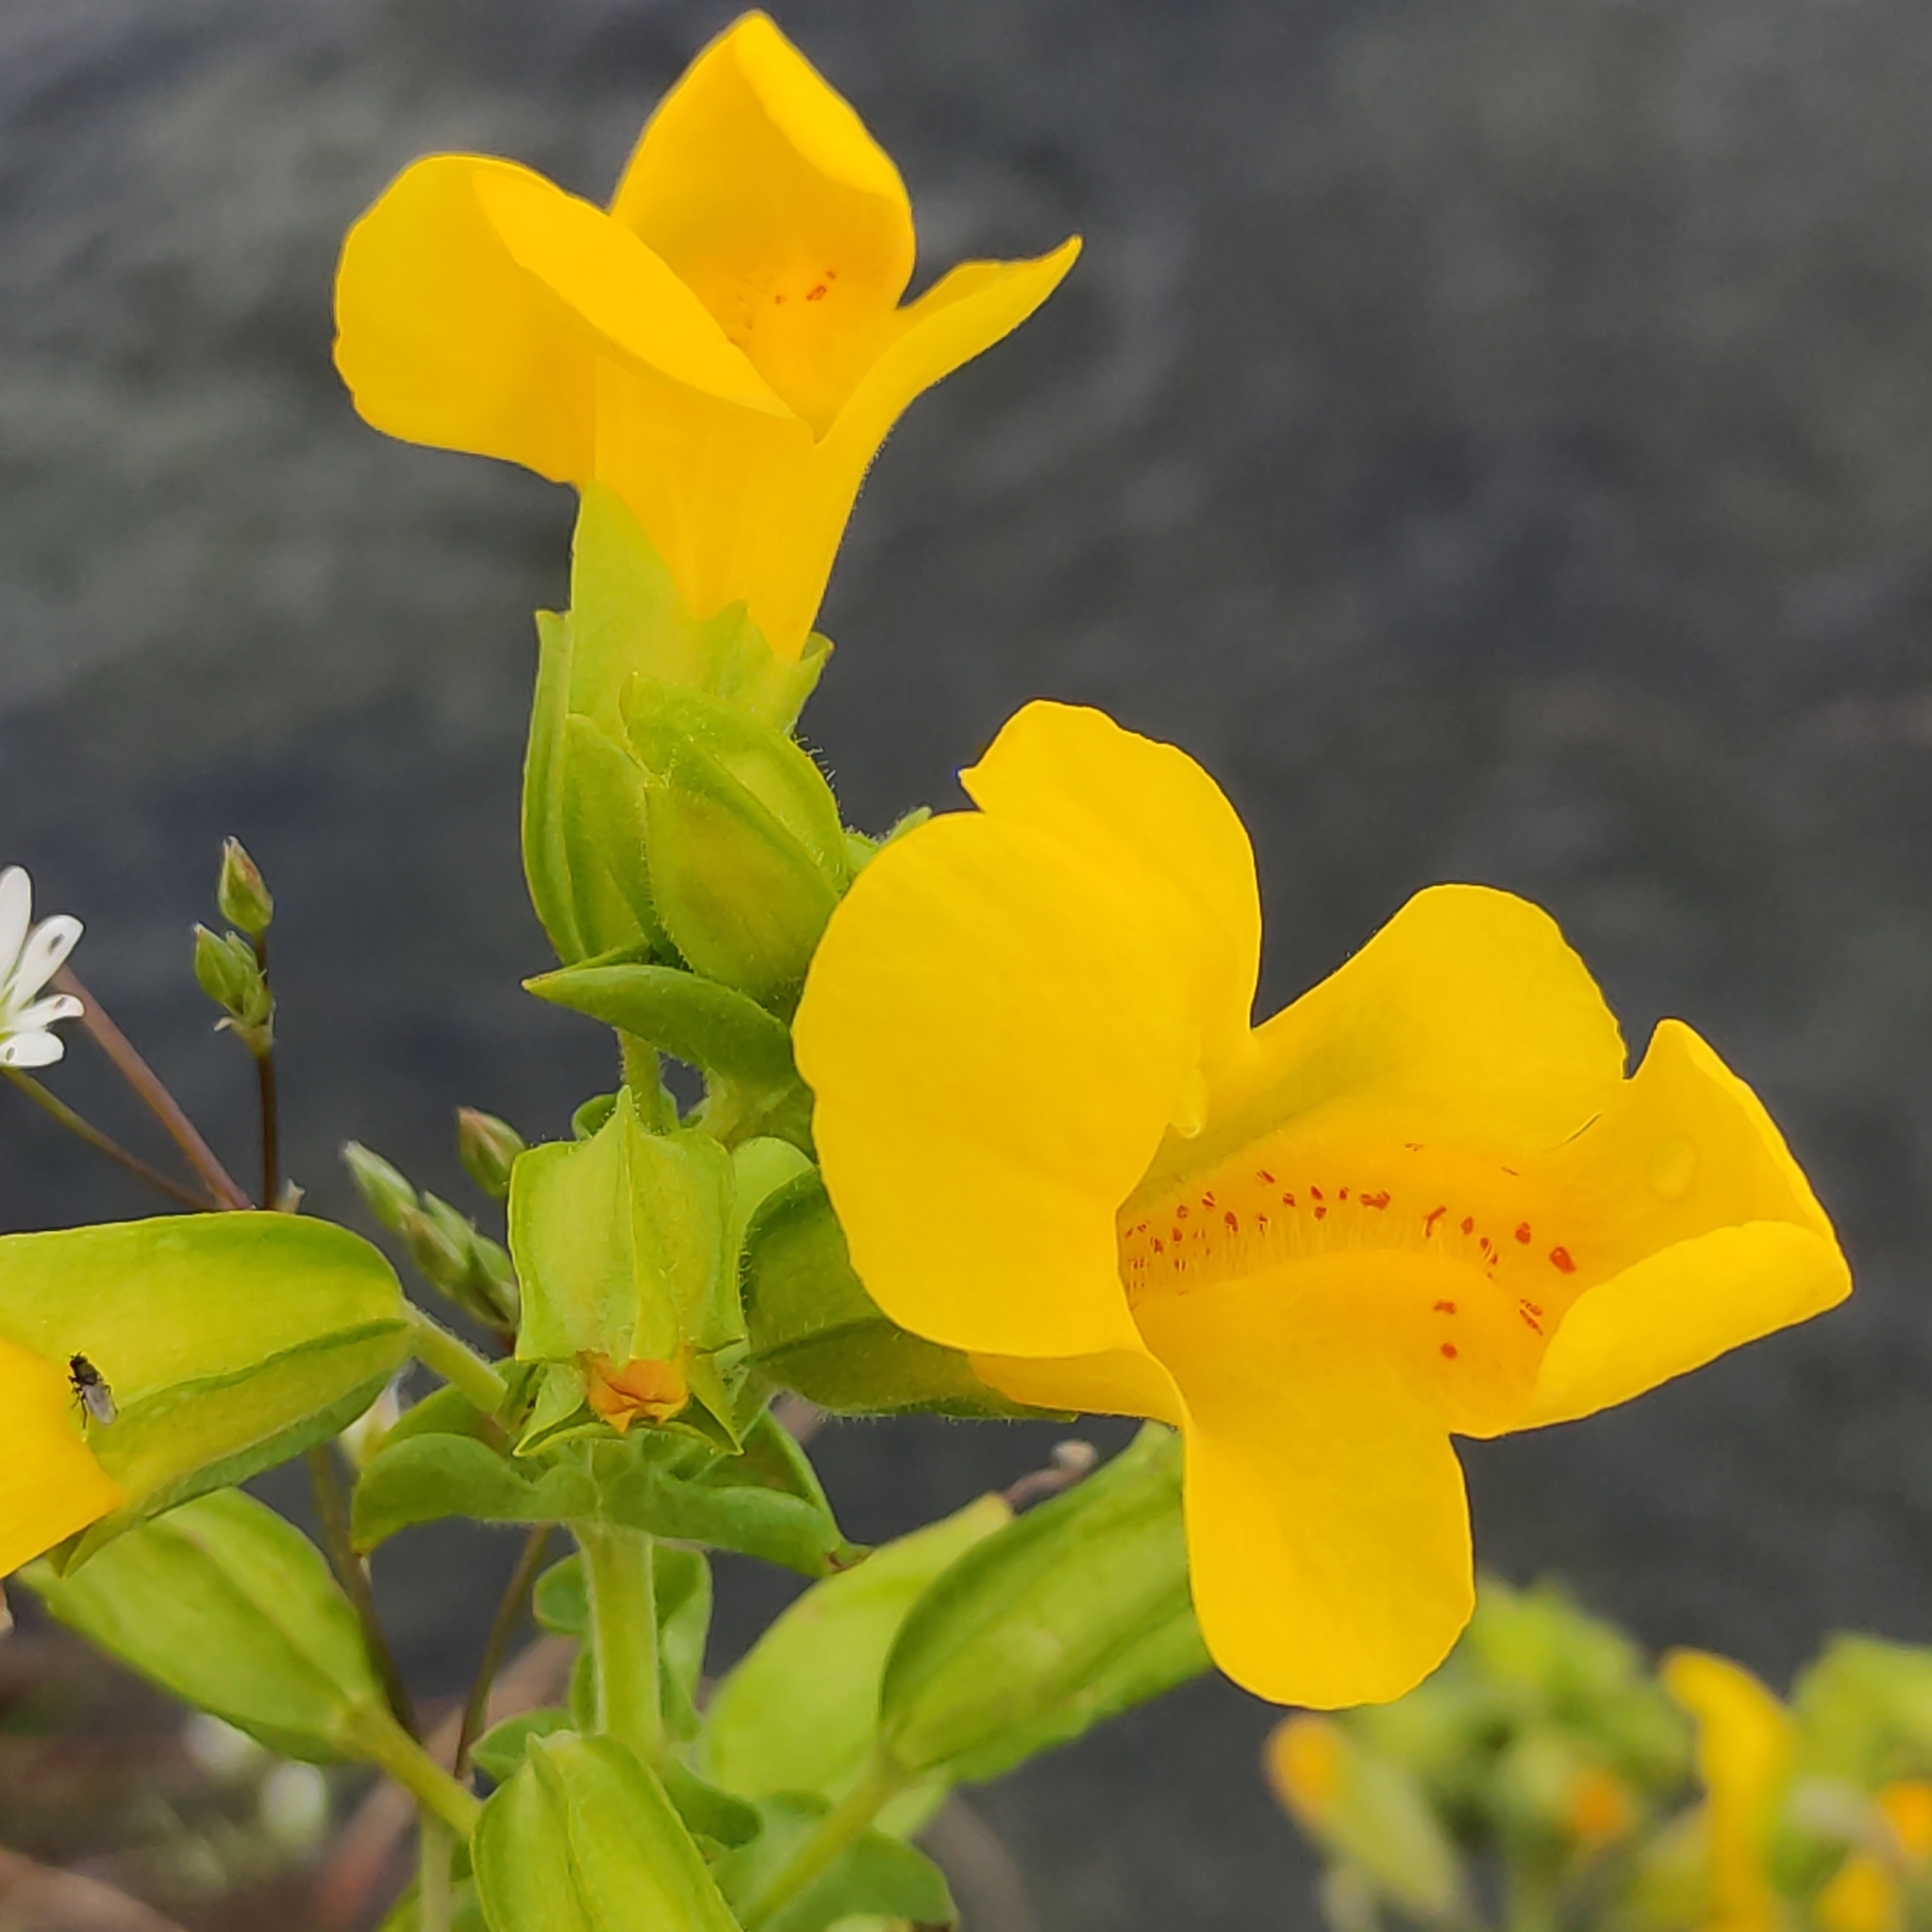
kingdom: Plantae
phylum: Tracheophyta
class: Magnoliopsida
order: Lamiales
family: Phrymaceae
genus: Erythranthe
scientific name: Erythranthe guttata
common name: Monkeyflower
